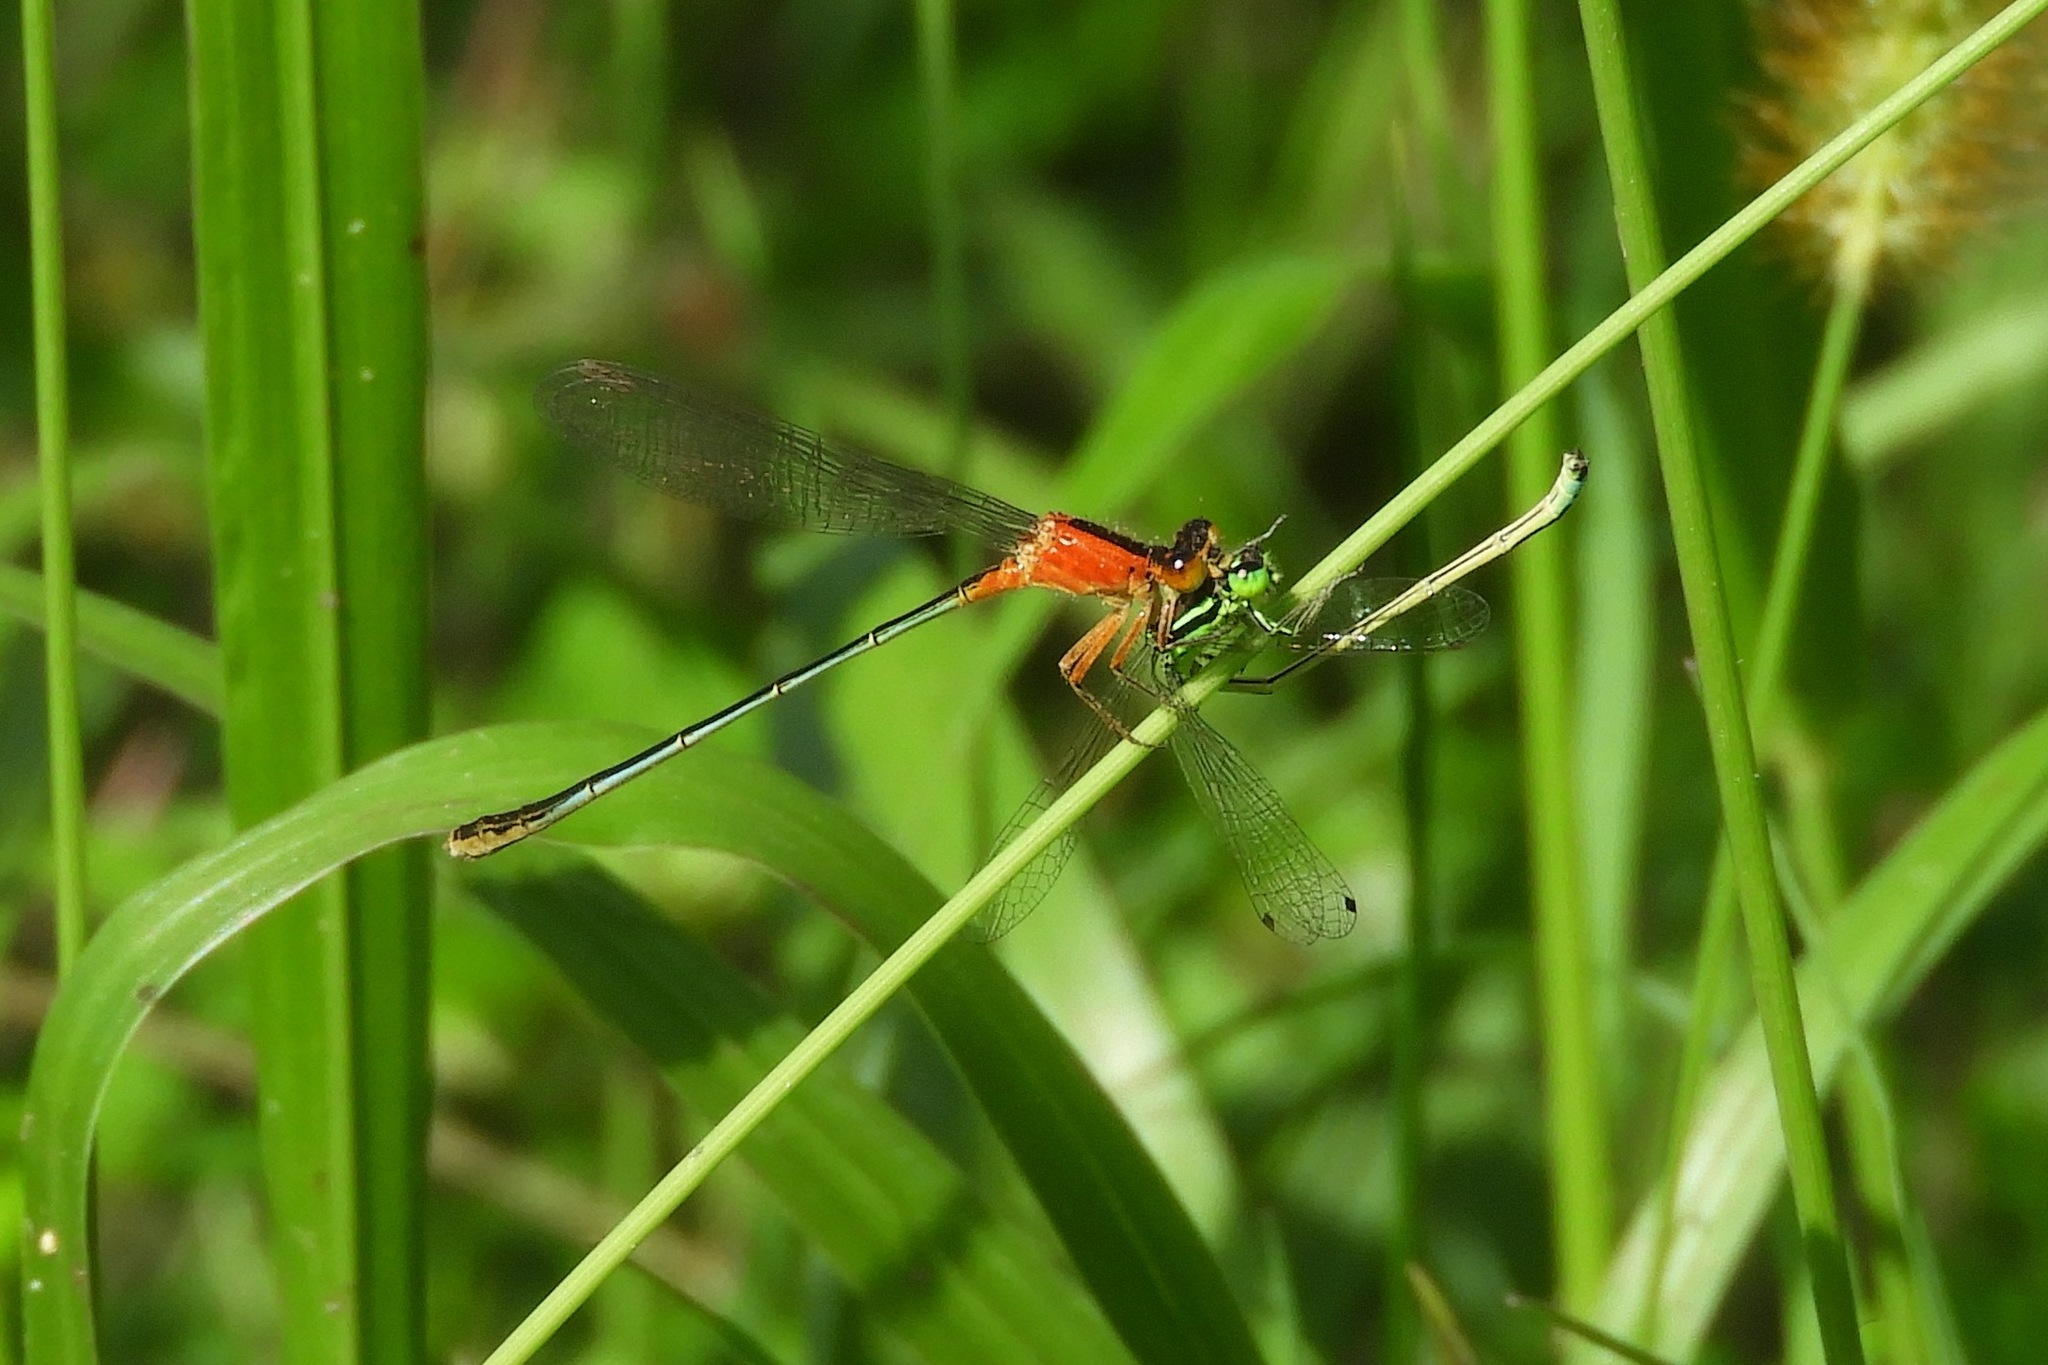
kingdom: Animalia
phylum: Arthropoda
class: Insecta
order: Odonata
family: Coenagrionidae
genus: Ischnura
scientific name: Ischnura ramburii
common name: Rambur's forktail
